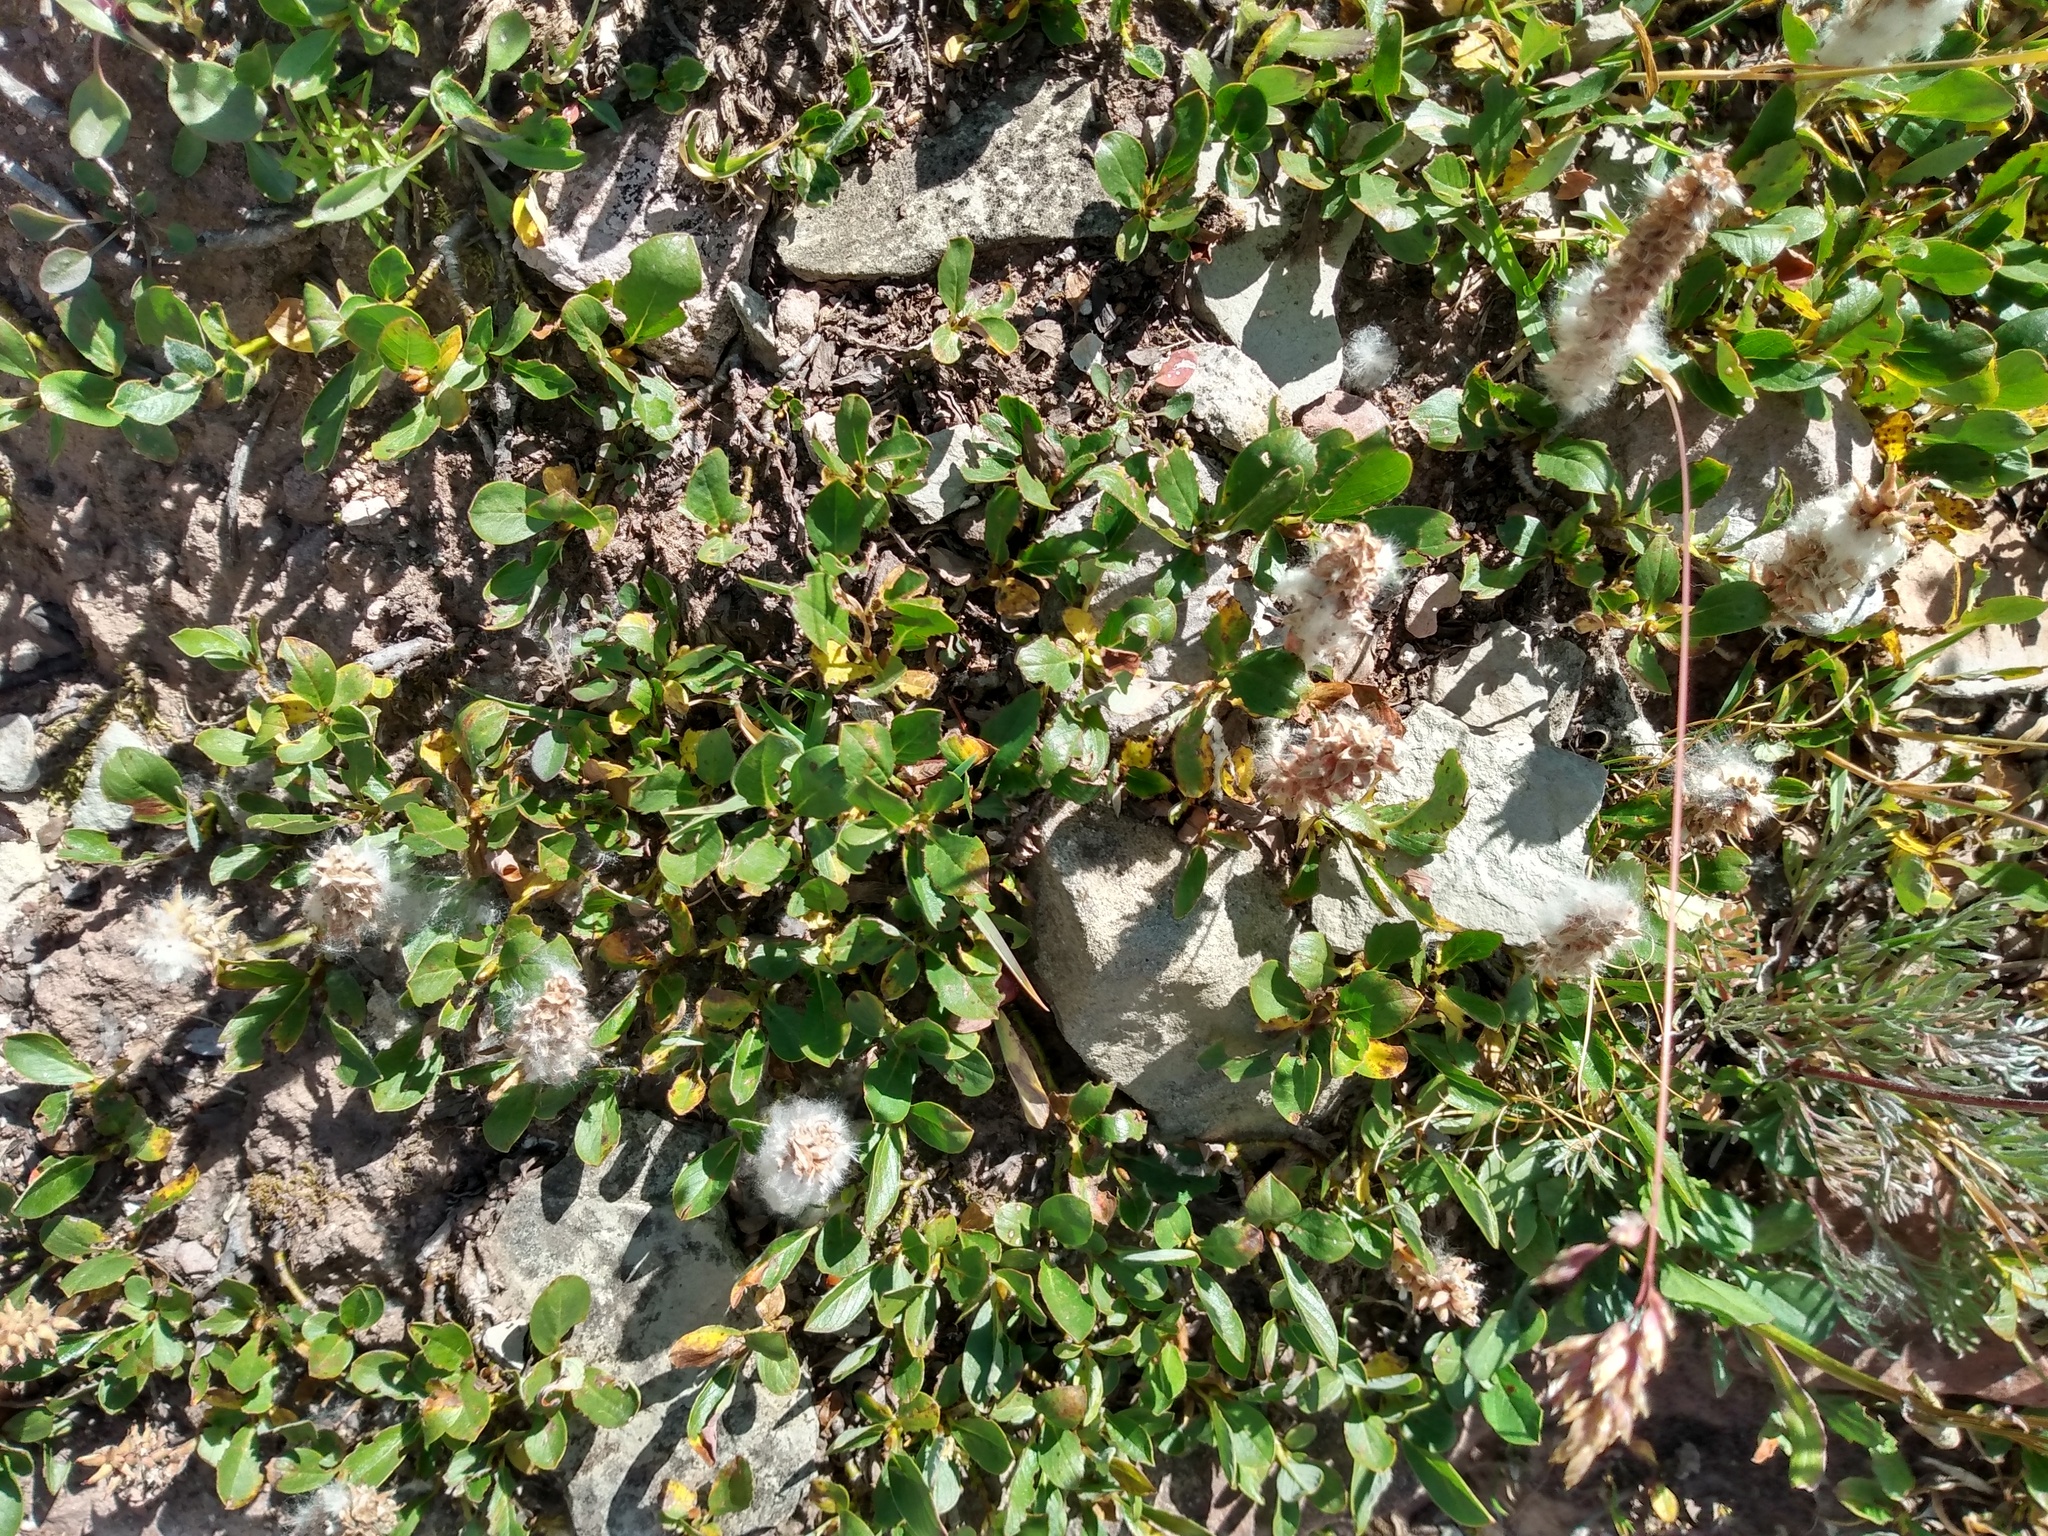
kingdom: Plantae
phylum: Tracheophyta
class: Magnoliopsida
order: Malpighiales
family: Salicaceae
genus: Salix
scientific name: Salix petrophila
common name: Rocky mountain willow
